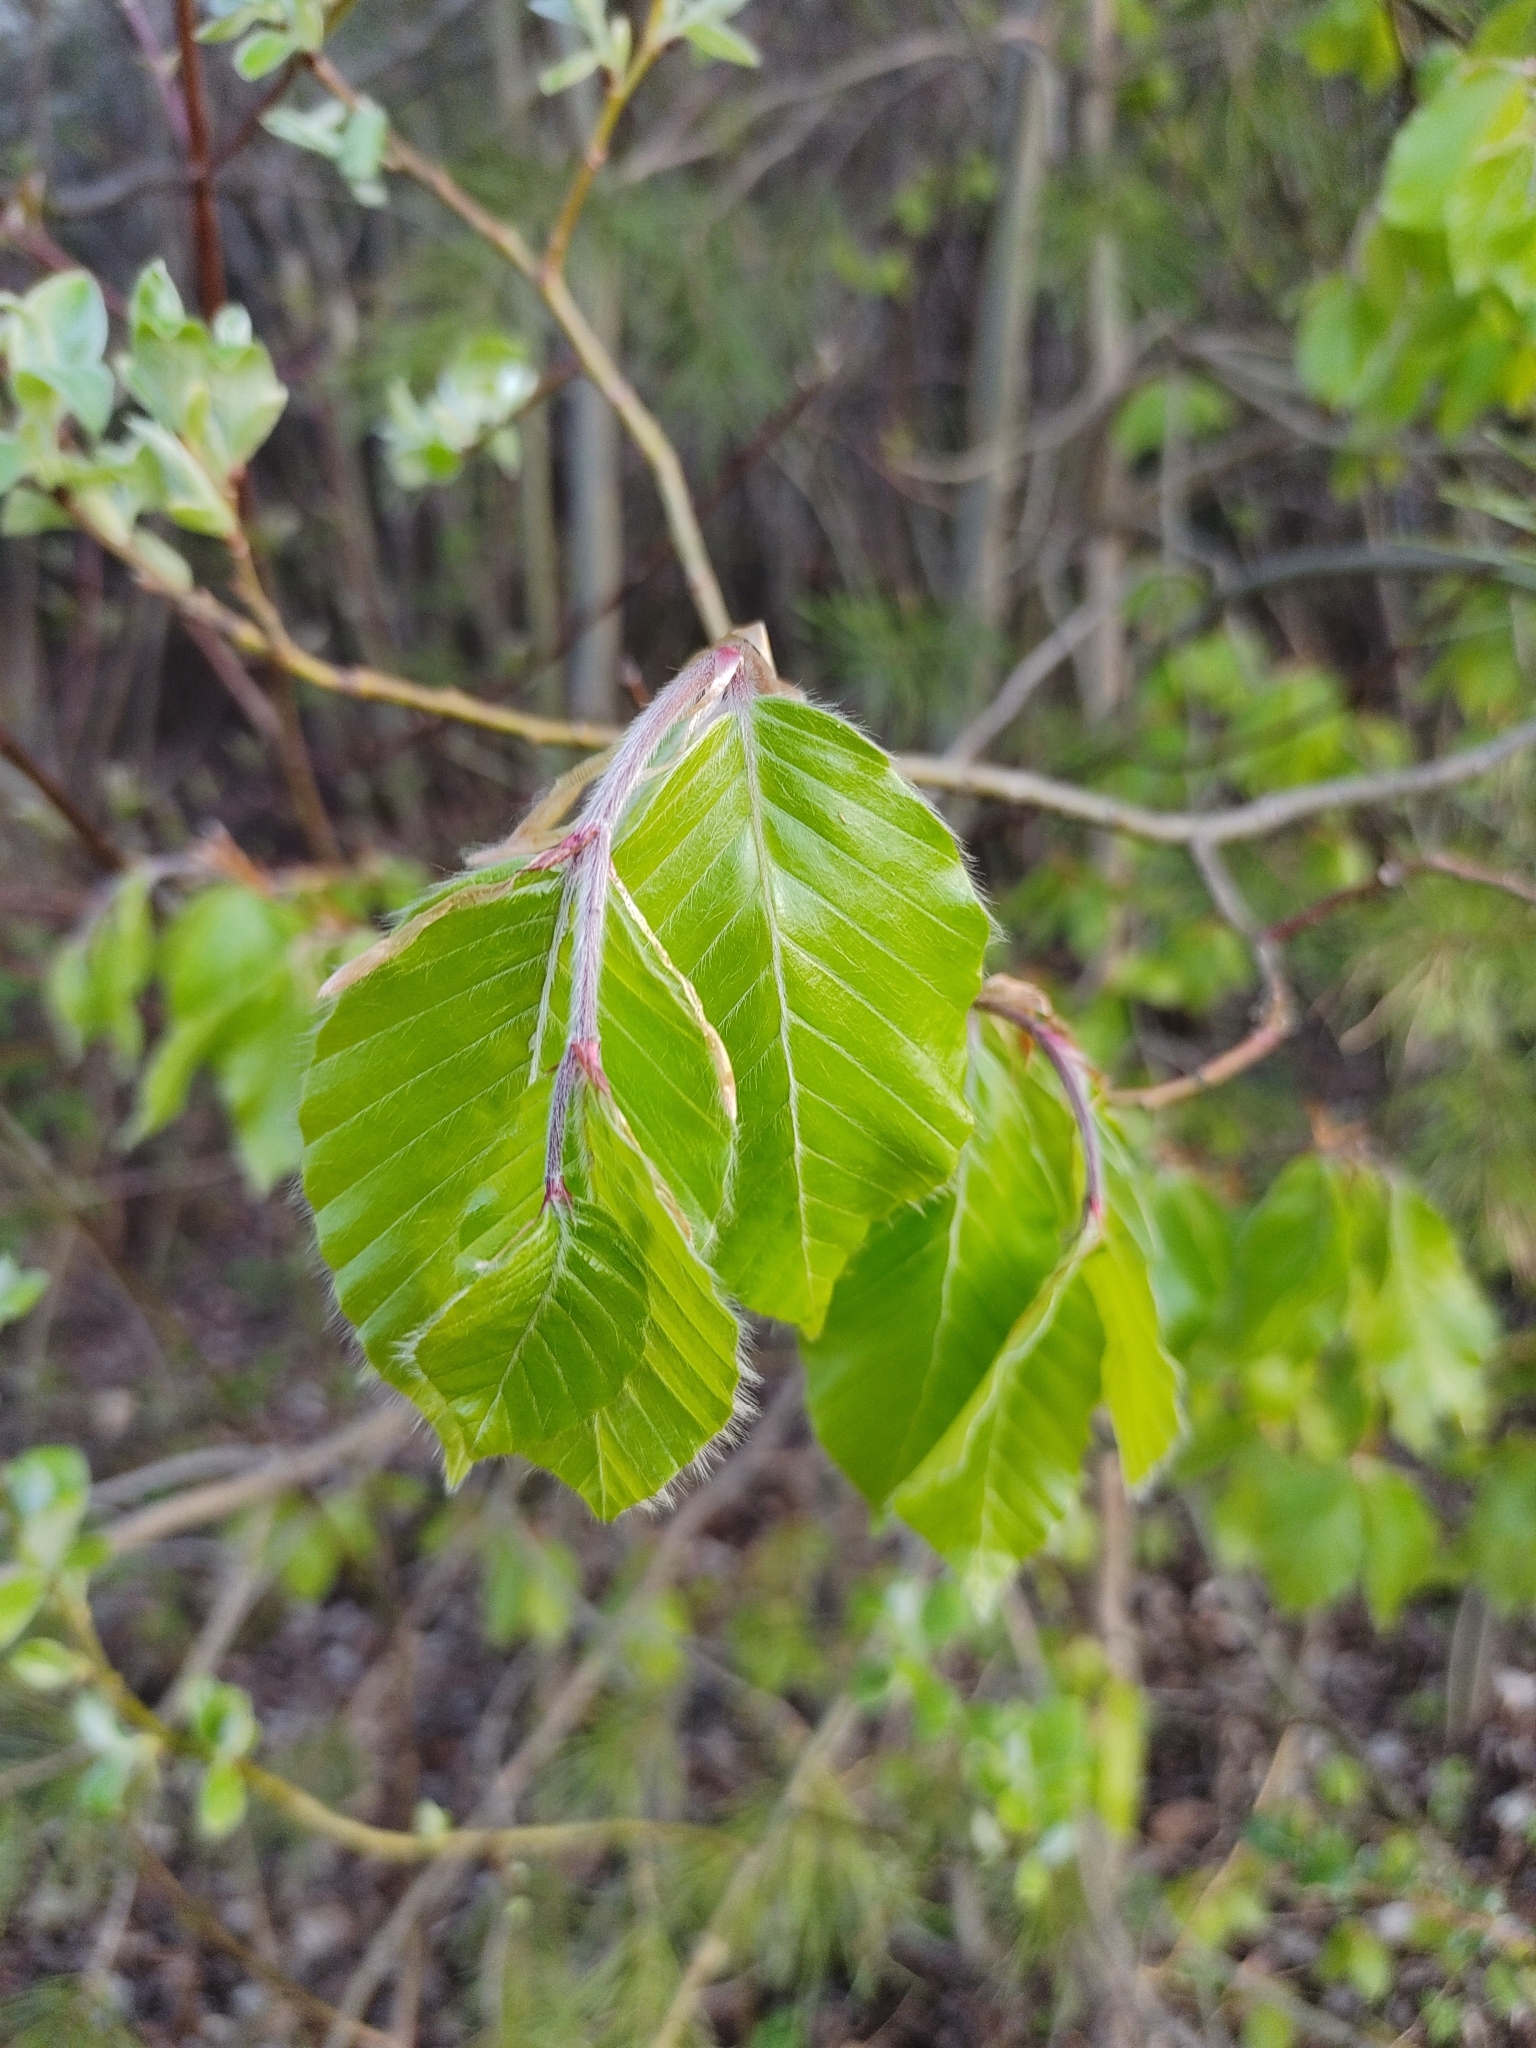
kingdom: Plantae
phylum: Tracheophyta
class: Magnoliopsida
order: Fagales
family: Fagaceae
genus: Fagus
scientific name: Fagus sylvatica
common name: Beech
